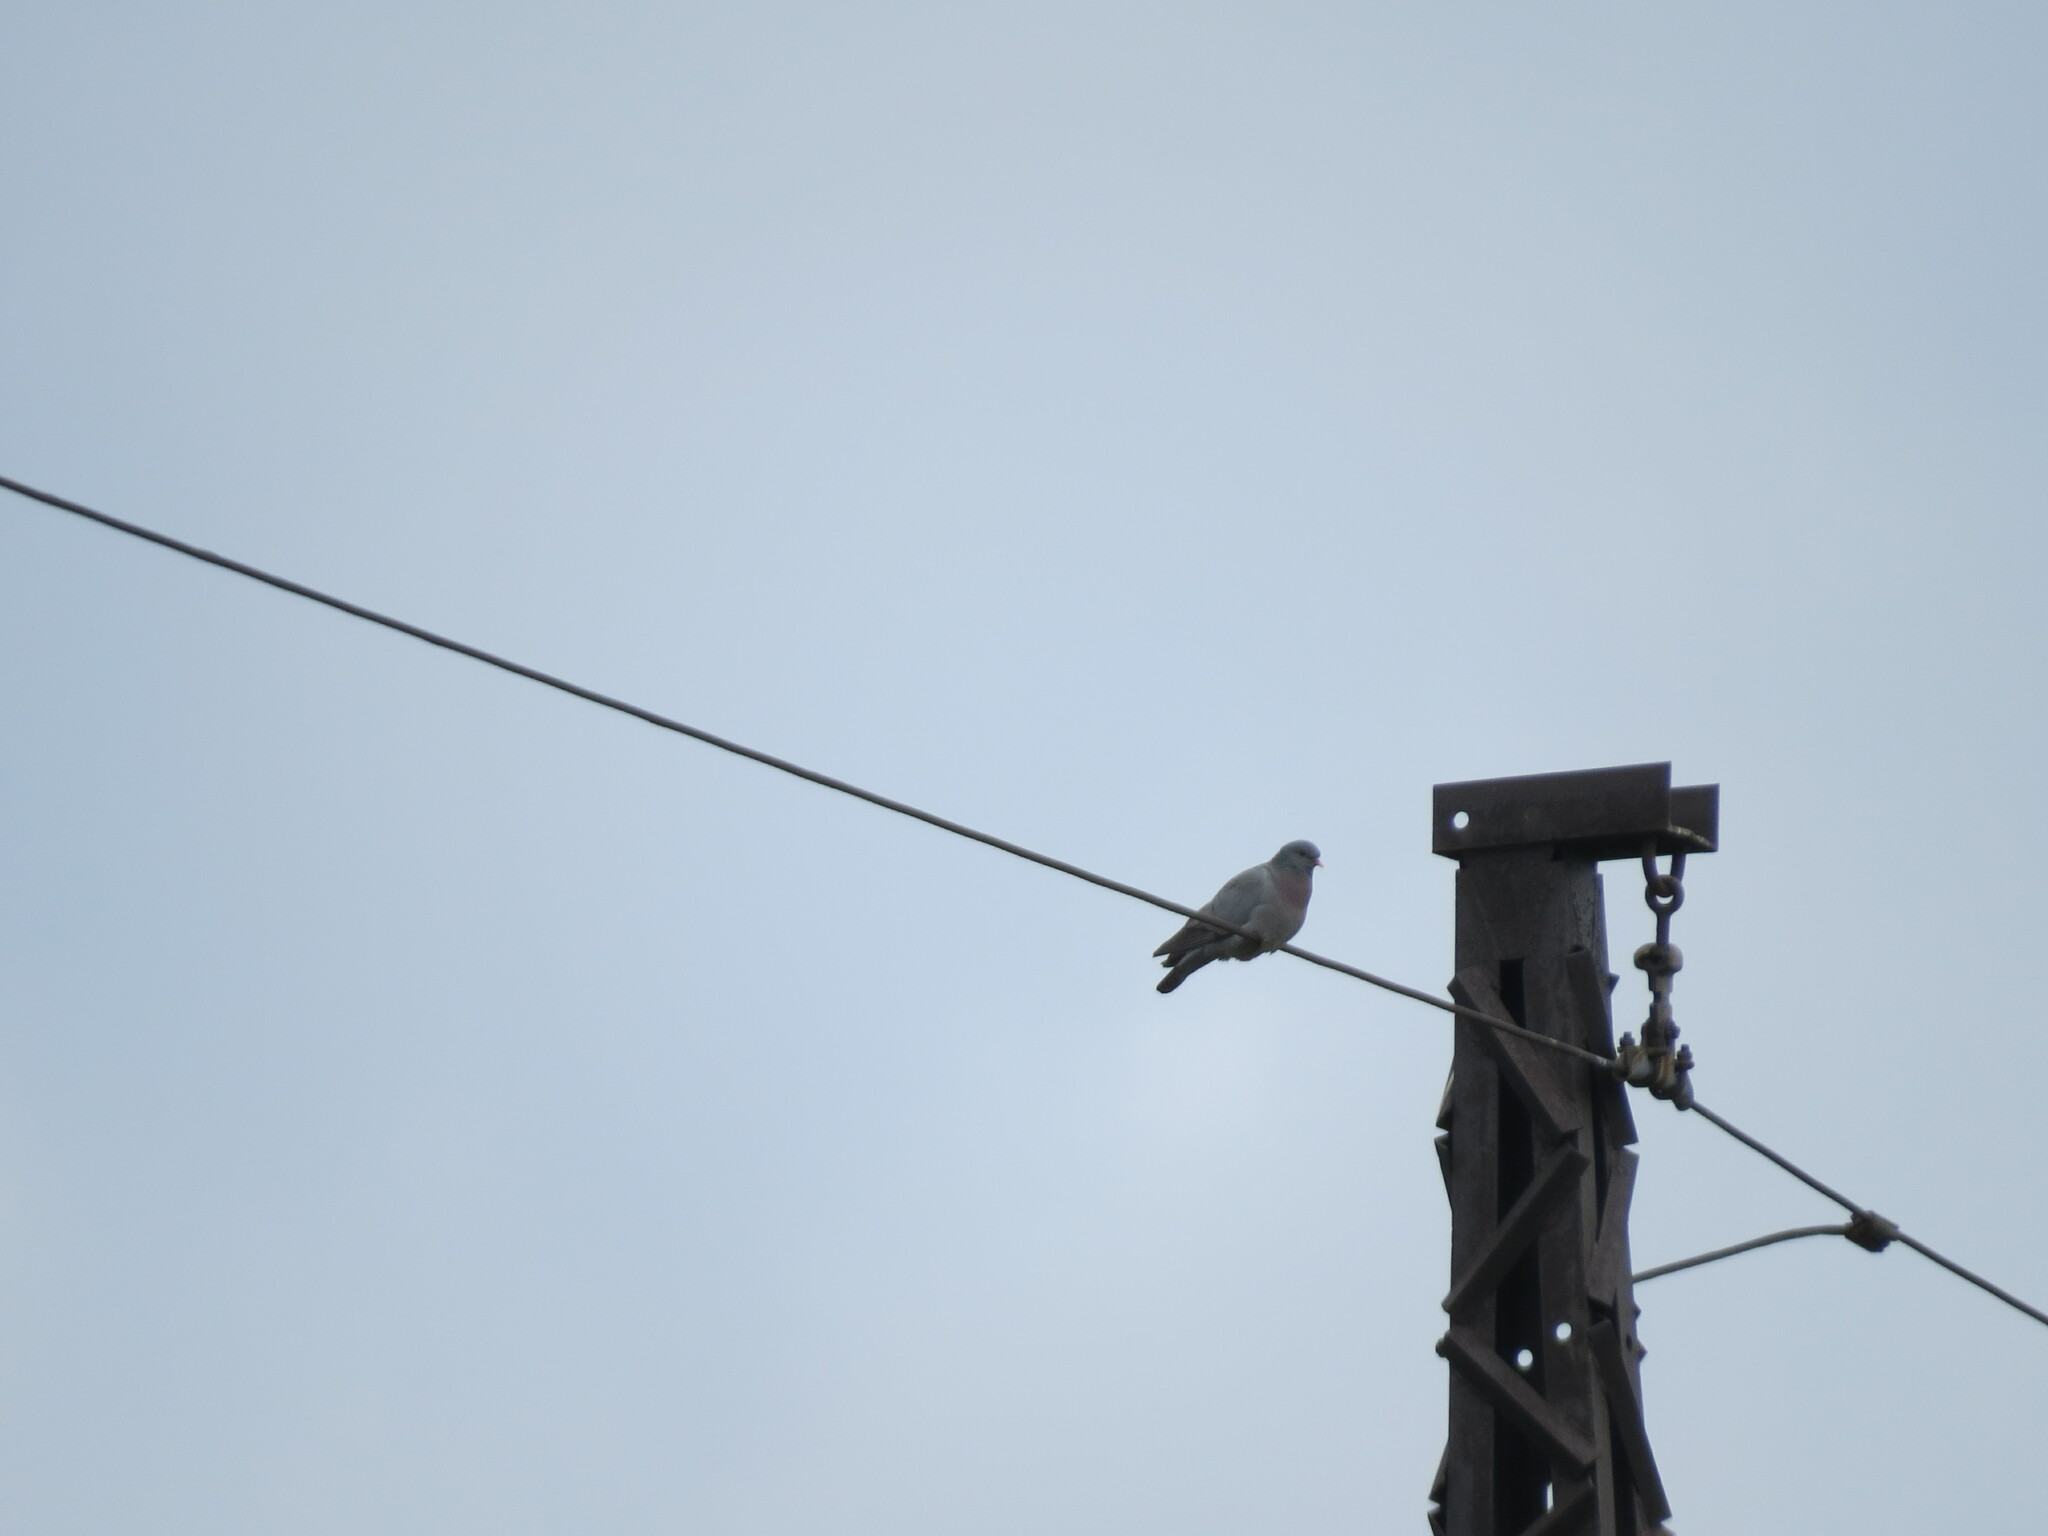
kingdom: Animalia
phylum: Chordata
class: Aves
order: Columbiformes
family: Columbidae
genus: Columba
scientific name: Columba oenas
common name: Stock dove
